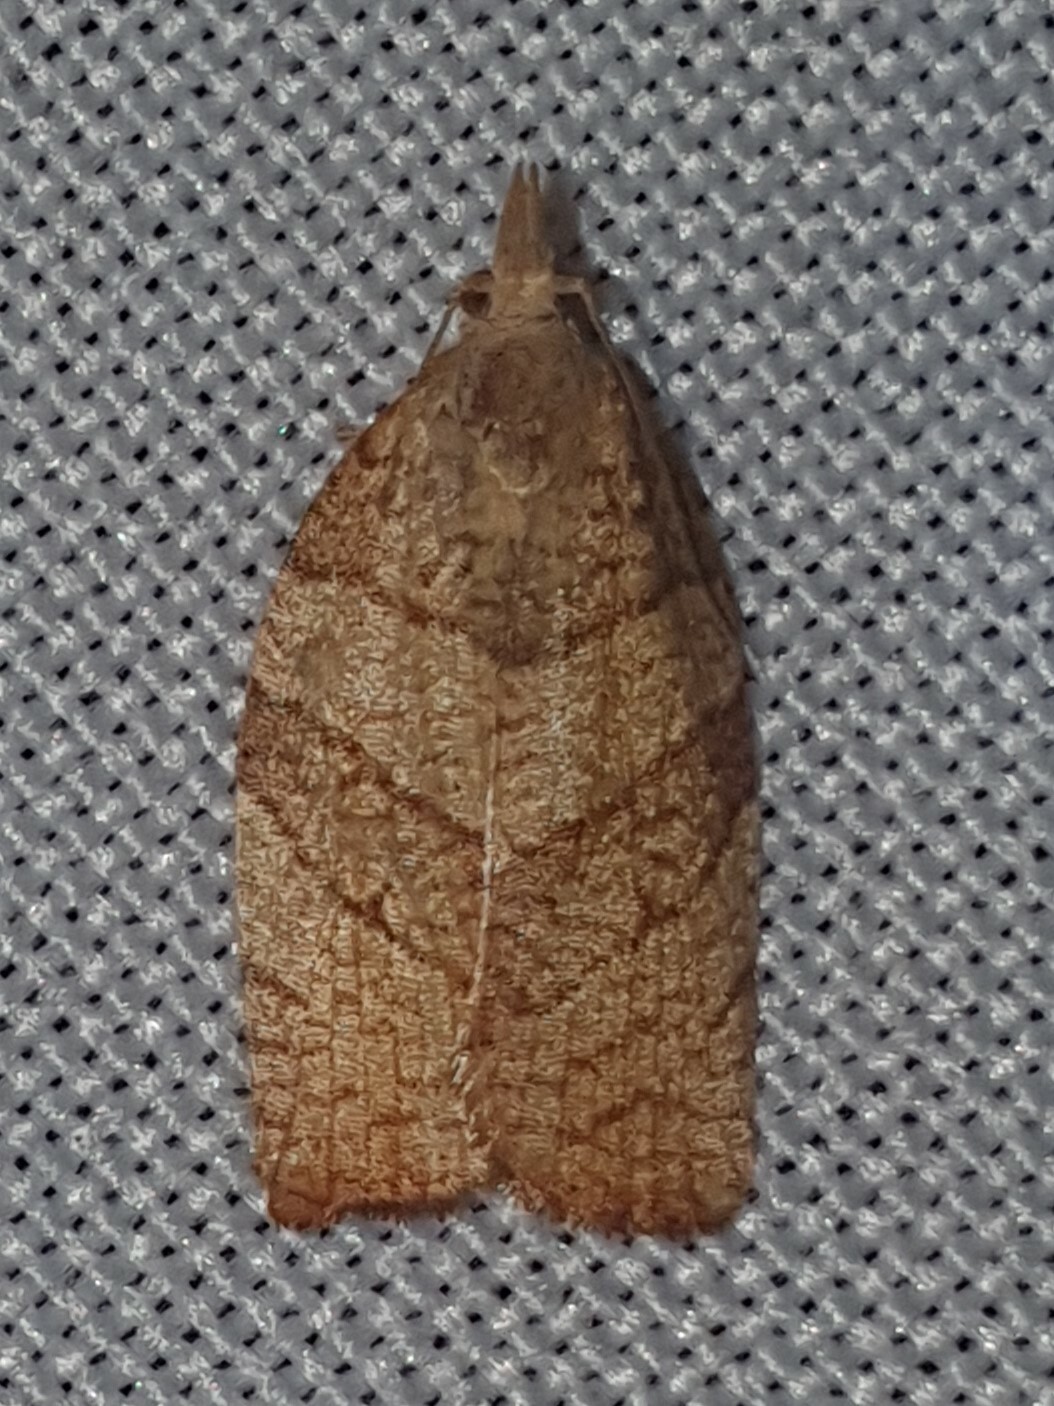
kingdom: Animalia
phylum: Arthropoda
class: Insecta
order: Lepidoptera
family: Tortricidae
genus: Pandemis
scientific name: Pandemis corylana
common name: Chequered fruit-tree tortrix
